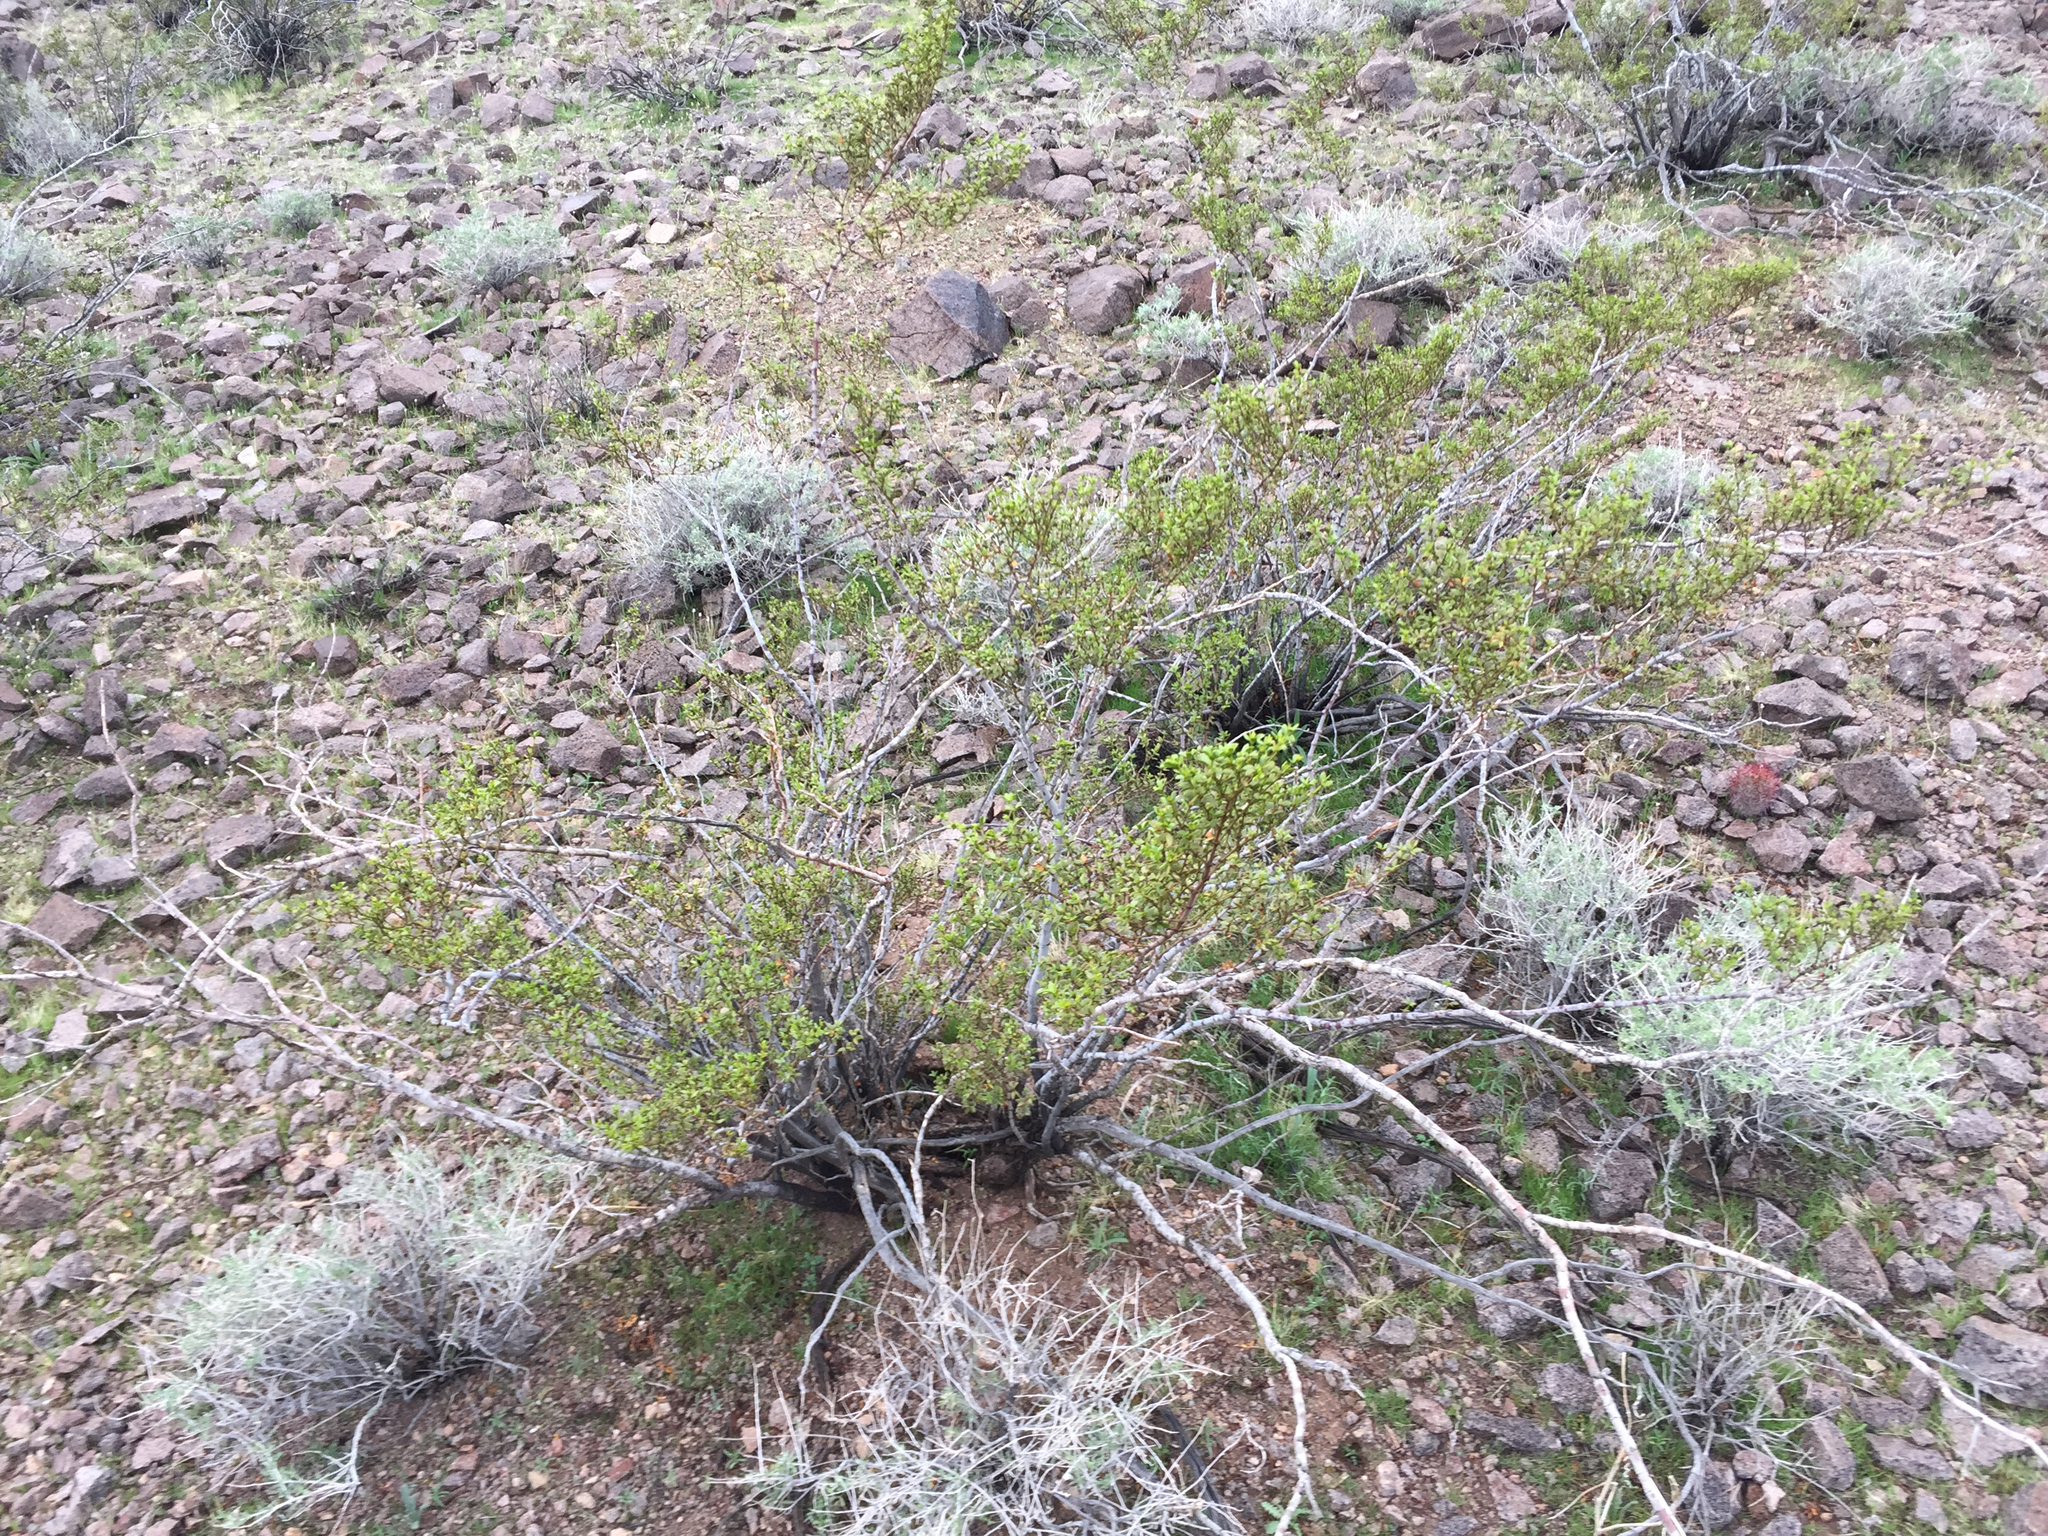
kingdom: Plantae
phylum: Tracheophyta
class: Magnoliopsida
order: Zygophyllales
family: Zygophyllaceae
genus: Larrea
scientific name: Larrea tridentata
